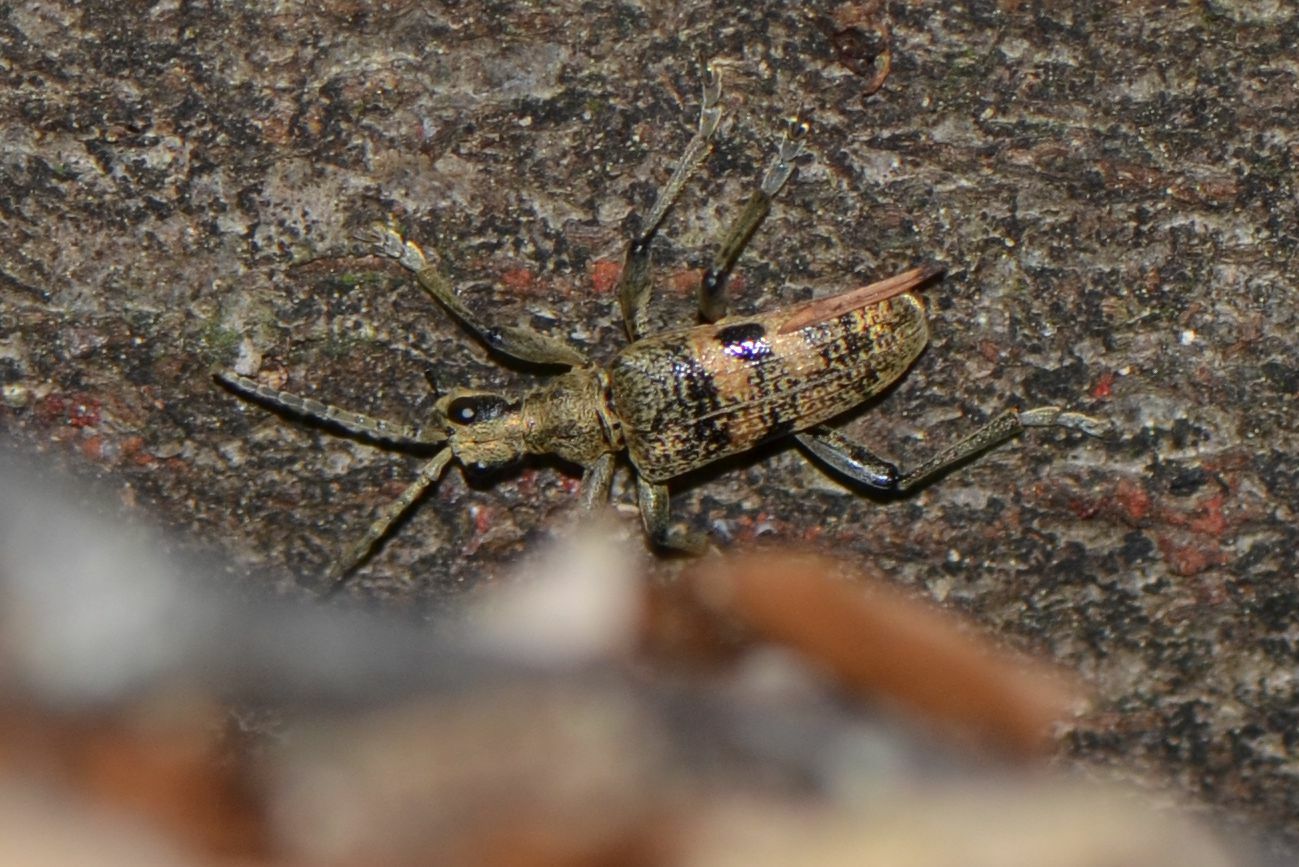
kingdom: Animalia
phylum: Arthropoda
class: Insecta
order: Coleoptera
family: Cerambycidae
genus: Rhagium
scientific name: Rhagium mordax
